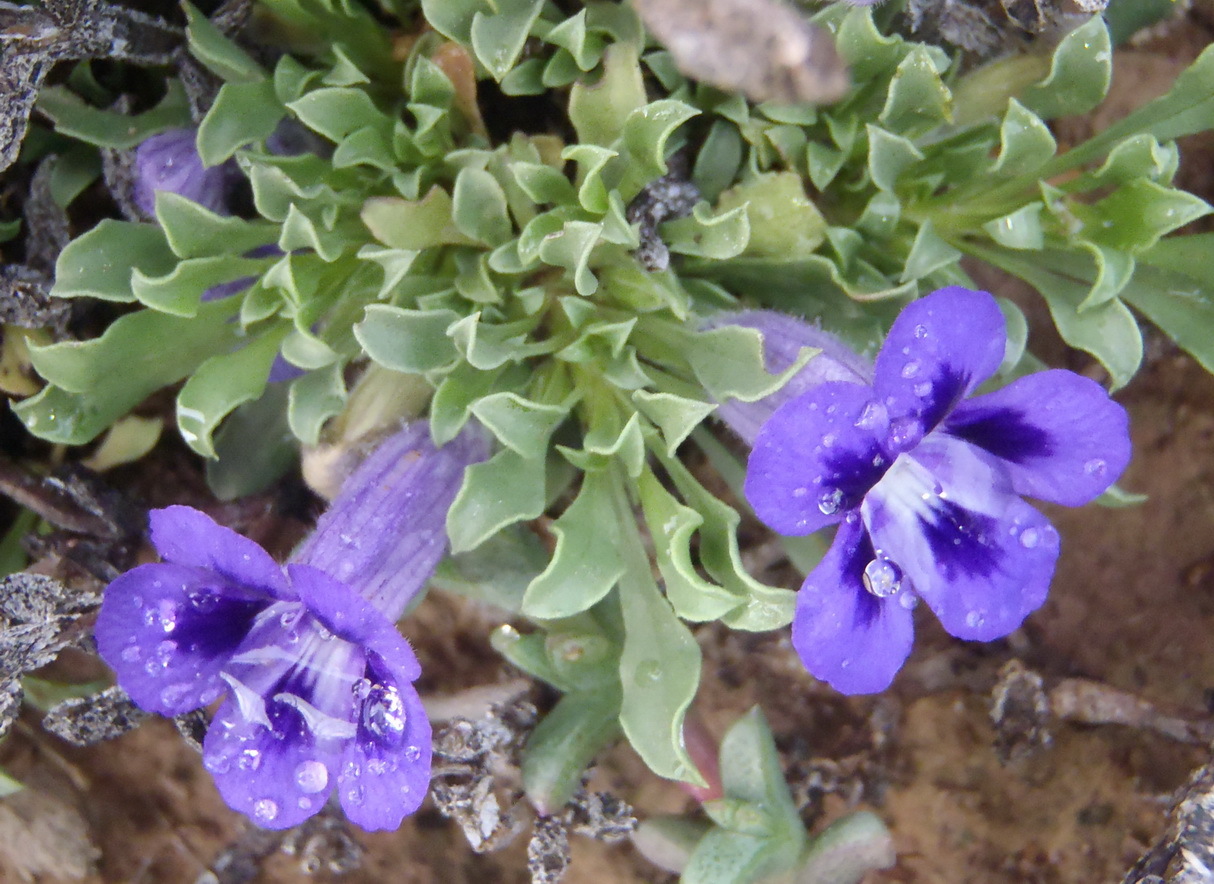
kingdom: Plantae
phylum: Tracheophyta
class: Magnoliopsida
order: Lamiales
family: Scrophulariaceae
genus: Aptosimum
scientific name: Aptosimum indivisum
